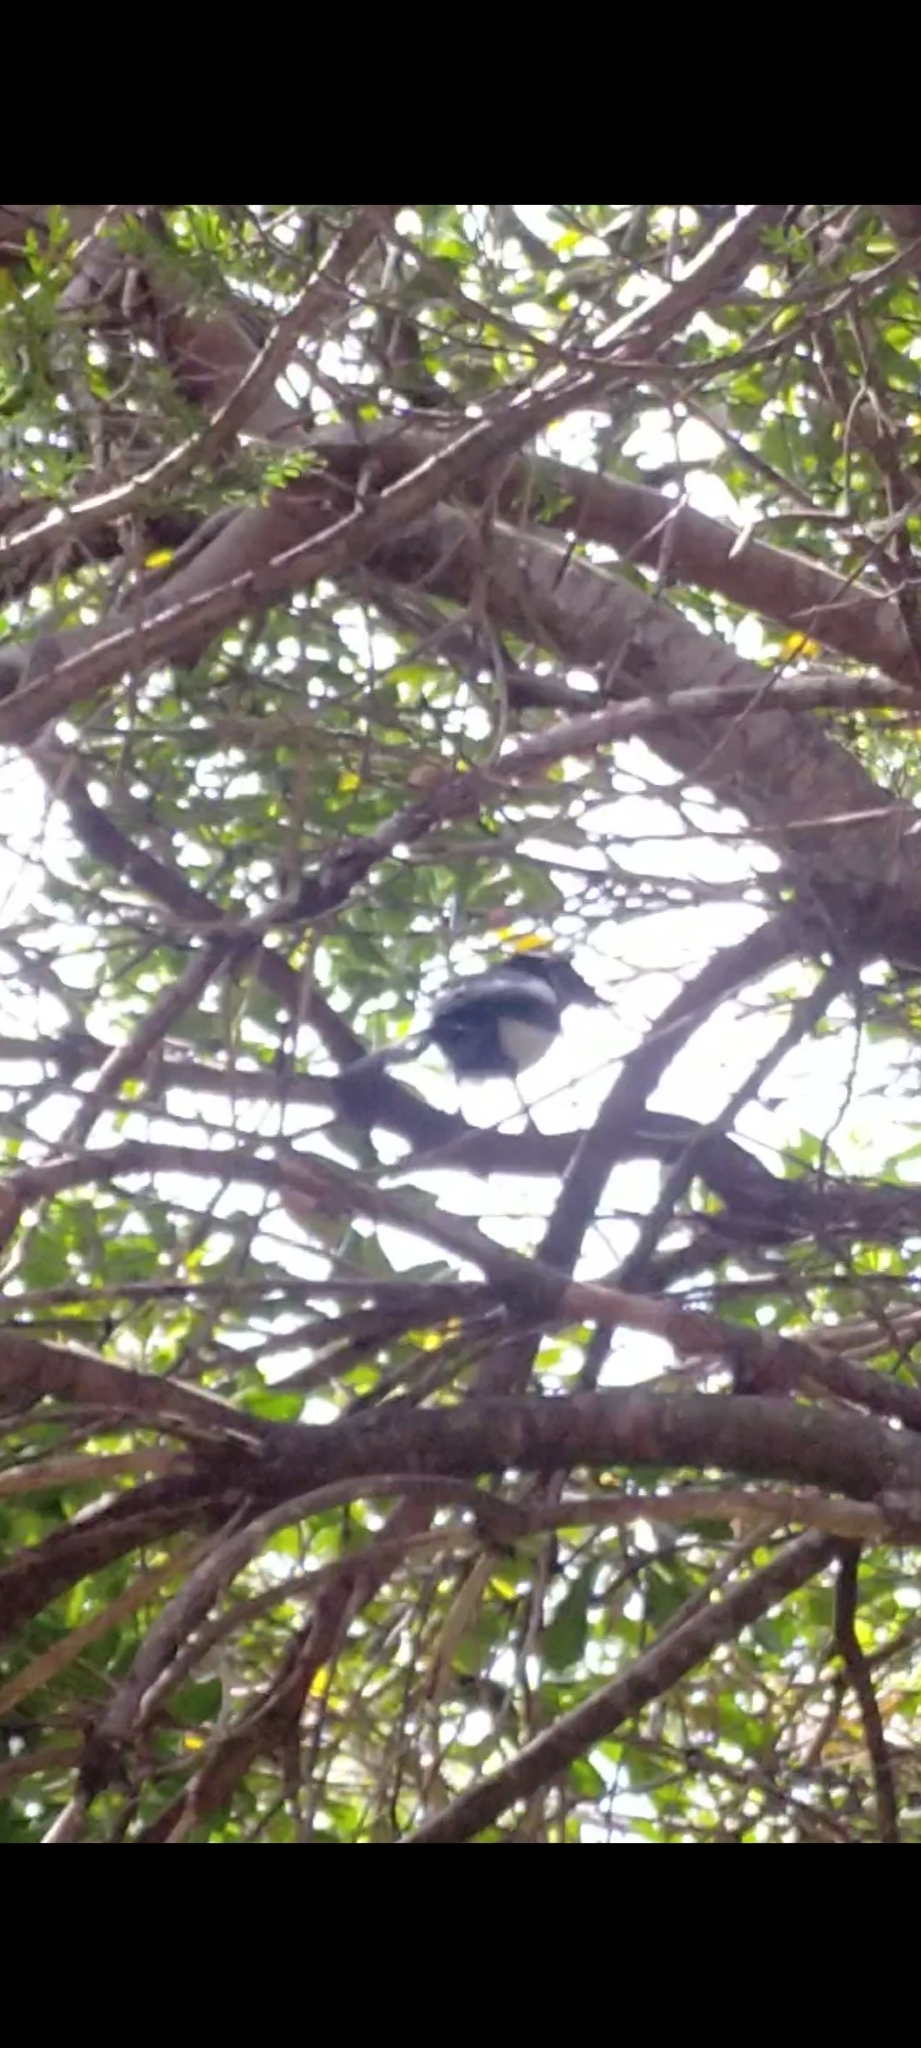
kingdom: Animalia
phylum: Chordata
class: Aves
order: Passeriformes
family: Corvidae
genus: Pica
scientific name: Pica pica
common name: Eurasian magpie
